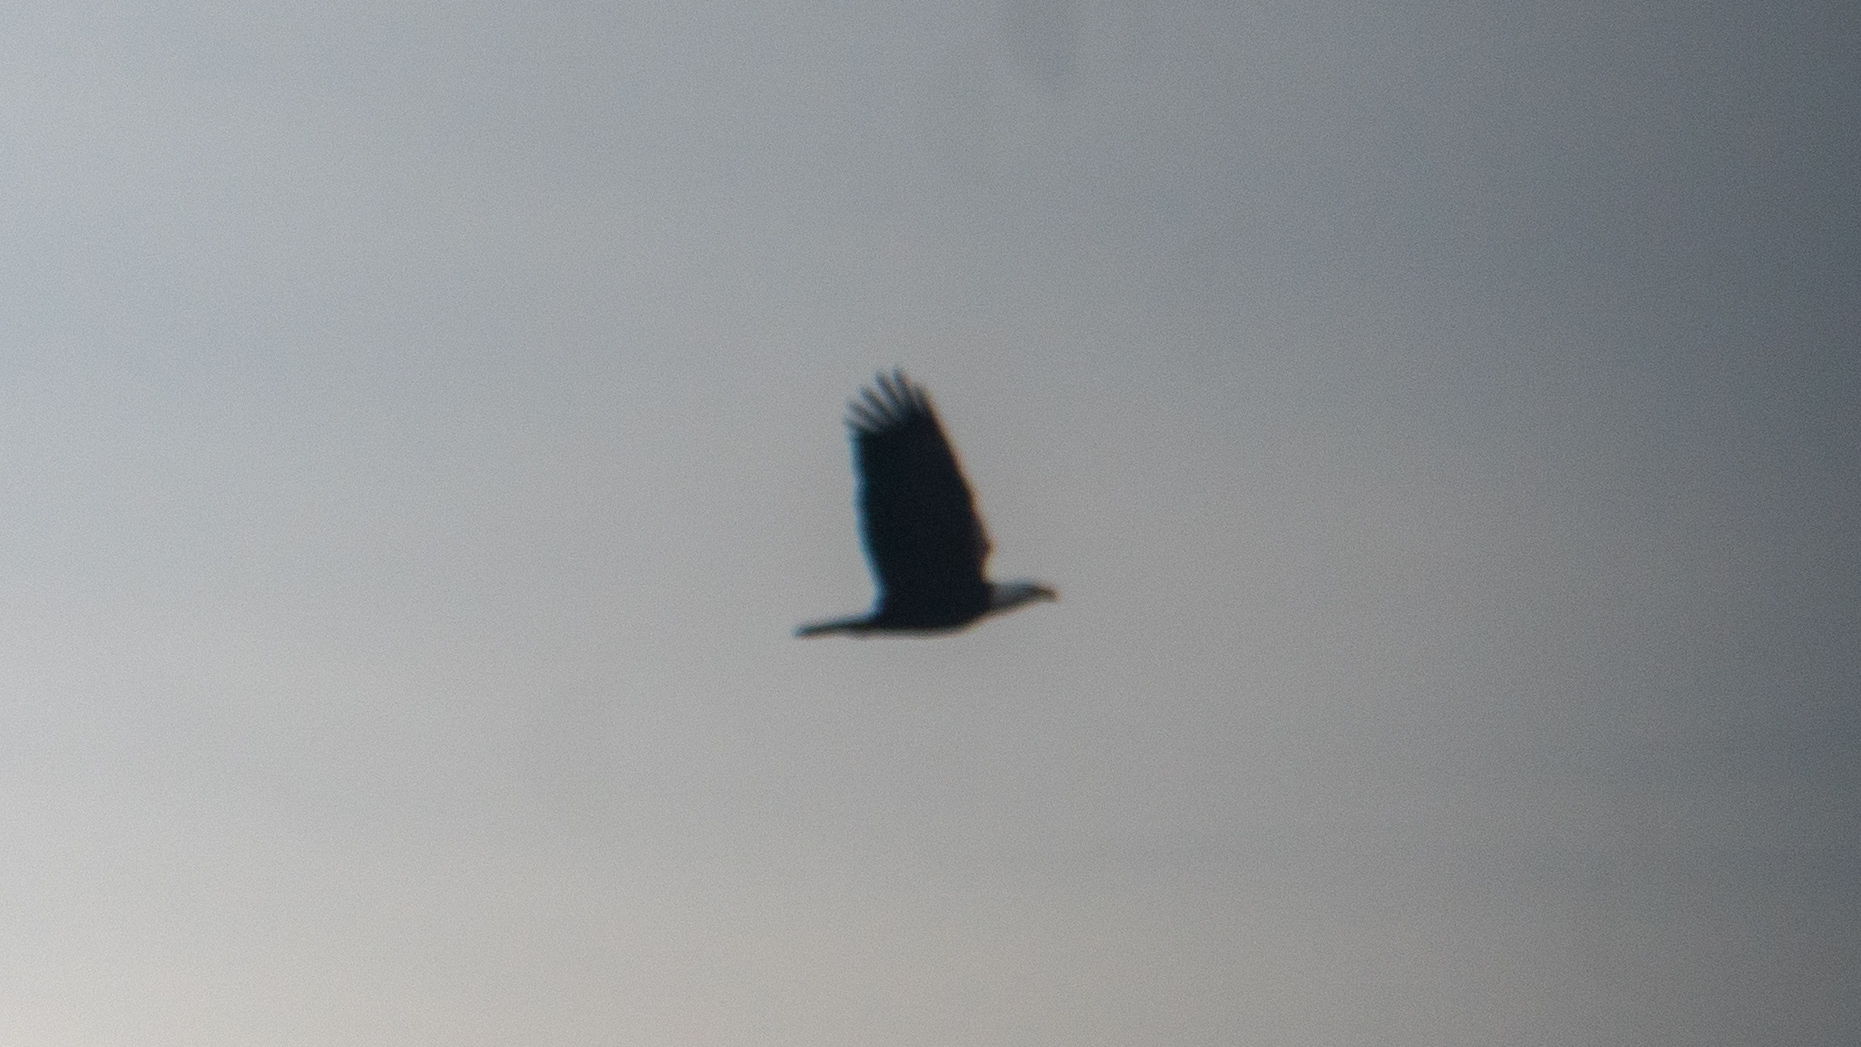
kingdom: Animalia
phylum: Chordata
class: Aves
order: Accipitriformes
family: Accipitridae
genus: Haliaeetus
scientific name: Haliaeetus leucocephalus
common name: Bald eagle
